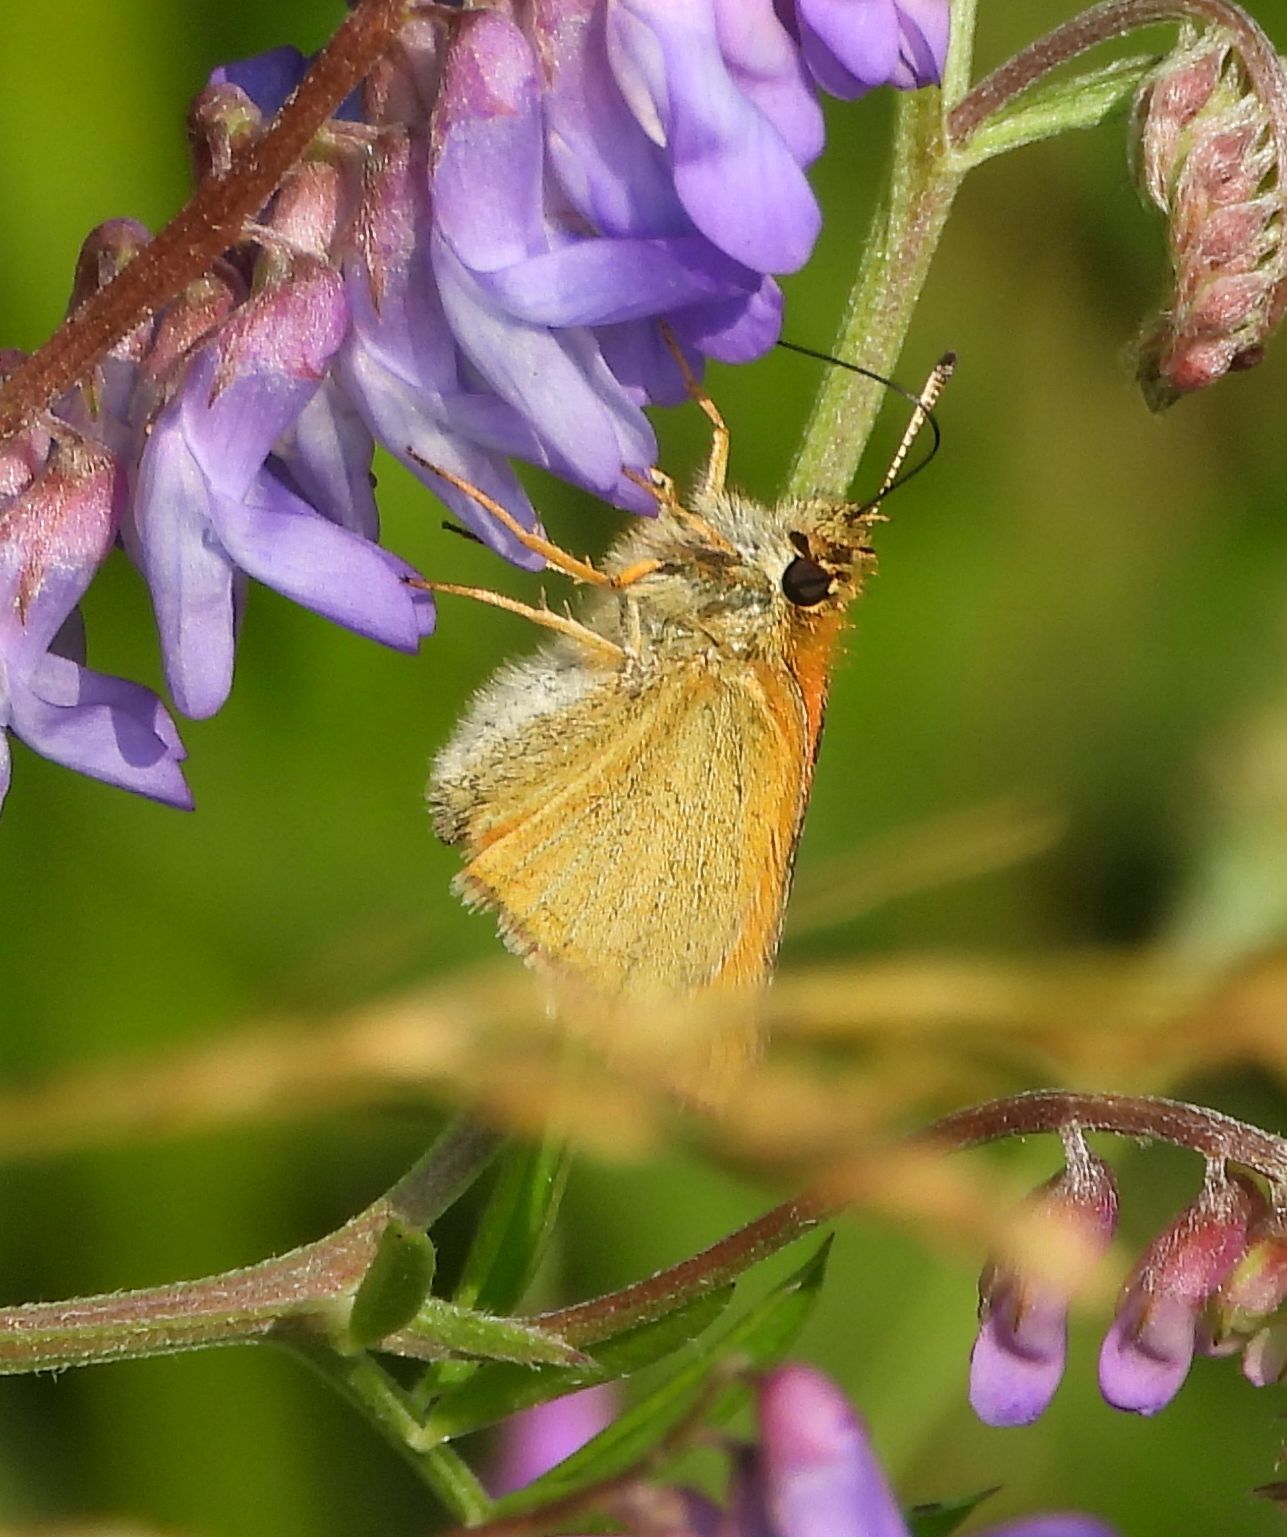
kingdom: Animalia
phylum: Arthropoda
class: Insecta
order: Lepidoptera
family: Hesperiidae
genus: Thymelicus
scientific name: Thymelicus lineola
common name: Essex skipper
